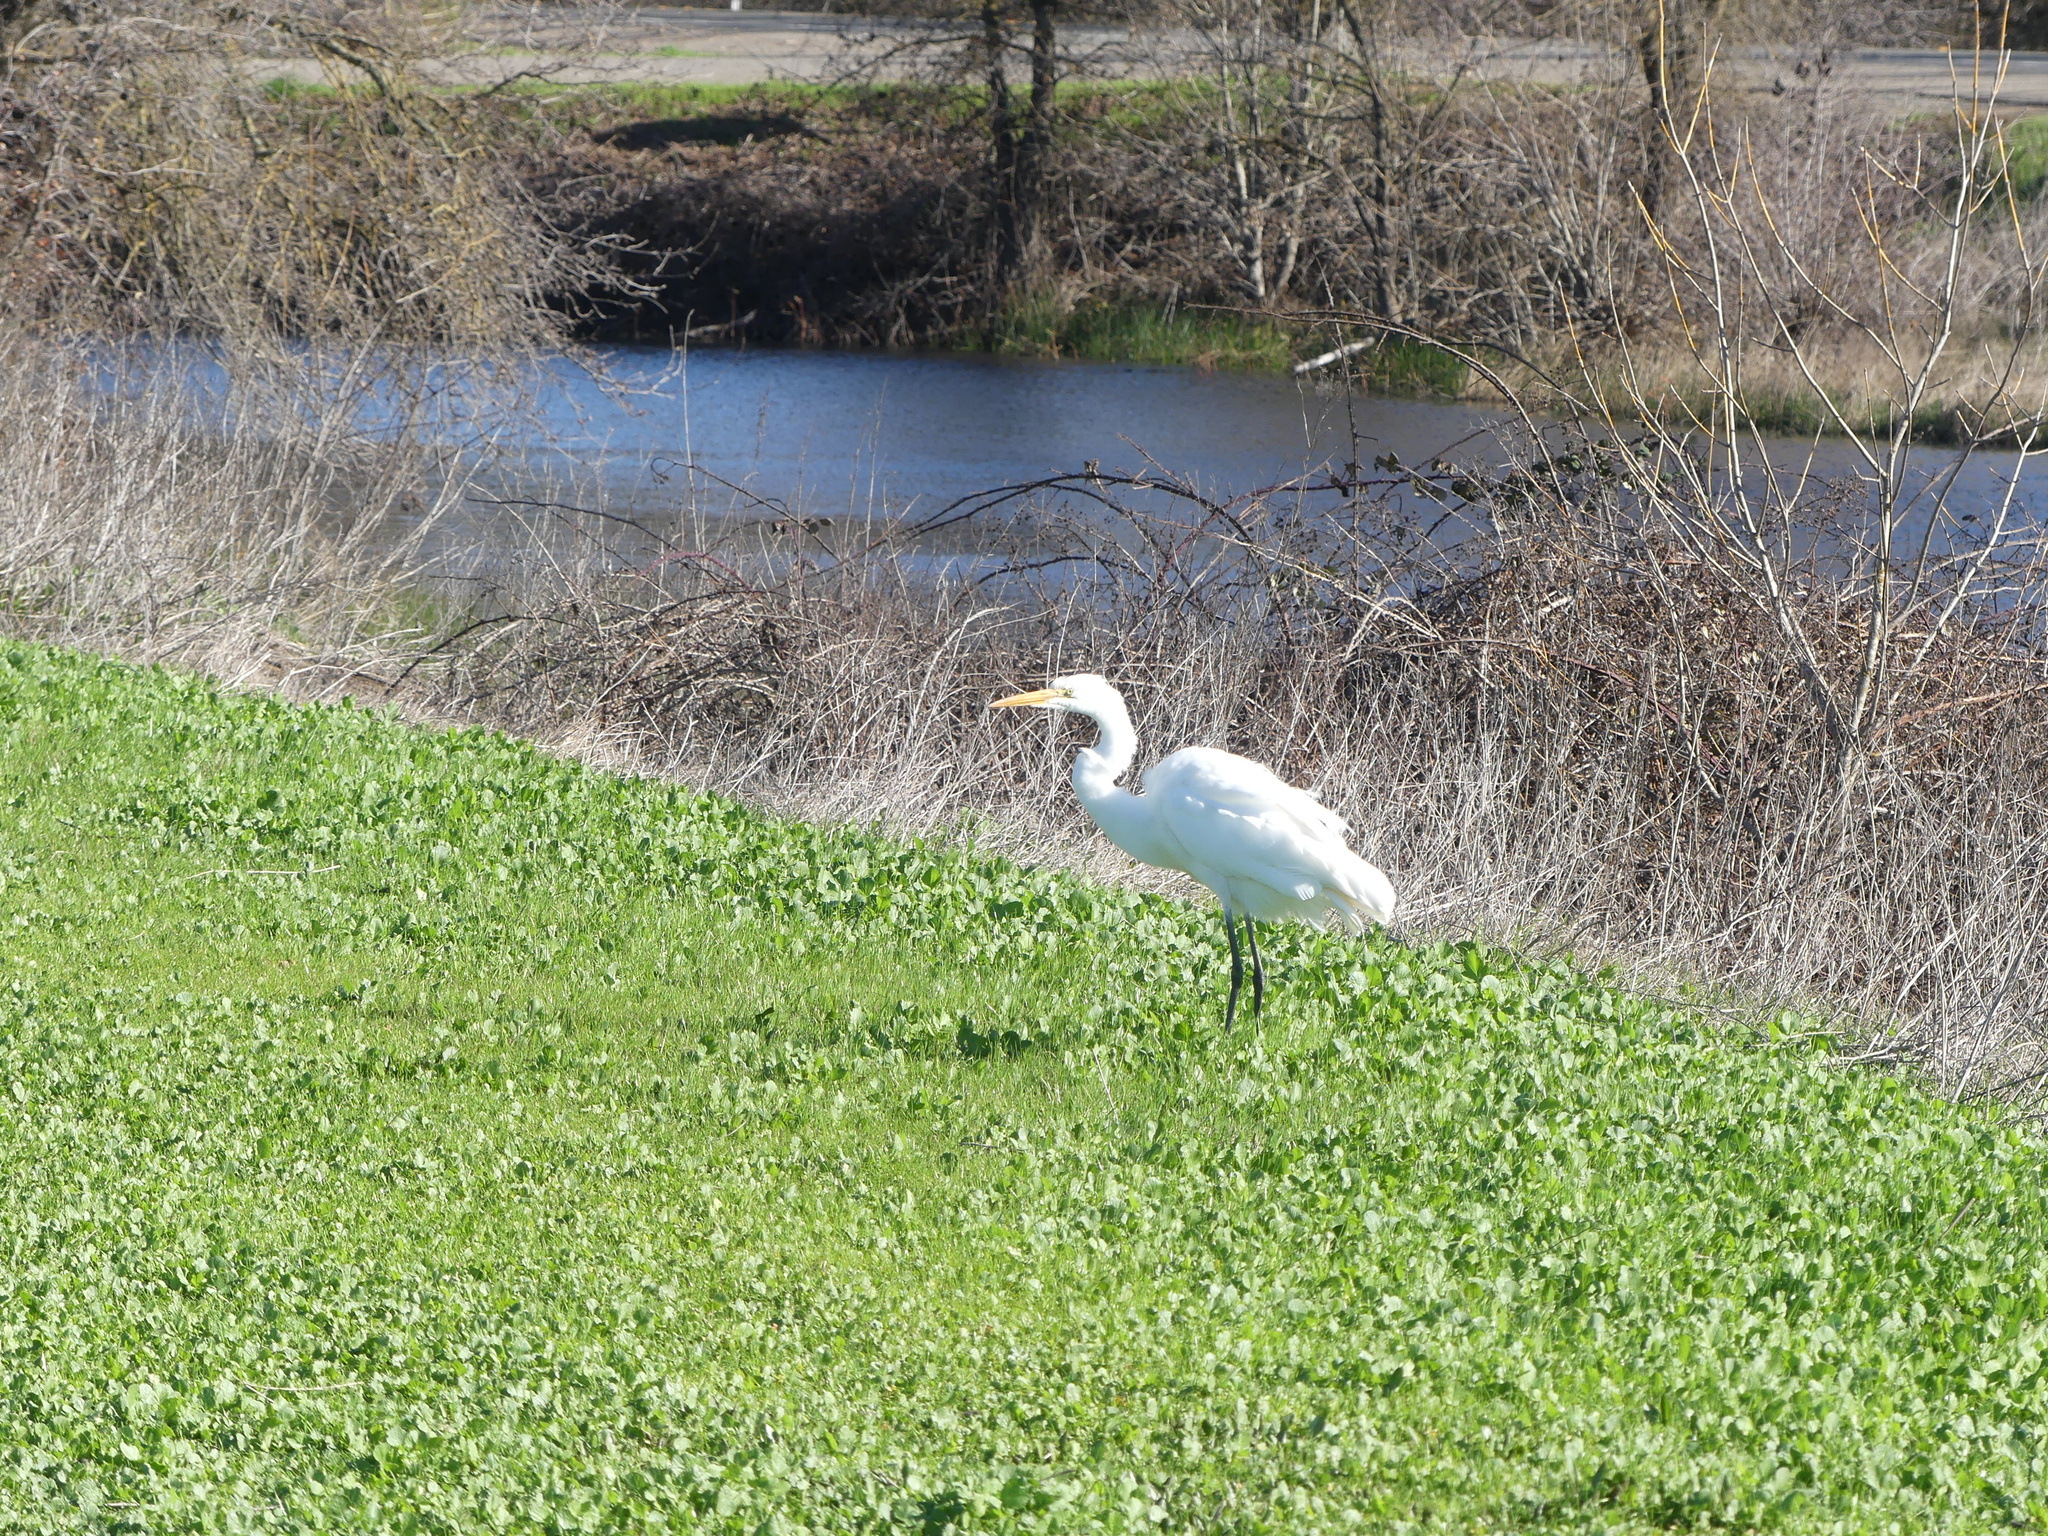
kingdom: Animalia
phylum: Chordata
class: Aves
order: Pelecaniformes
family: Ardeidae
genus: Ardea
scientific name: Ardea alba
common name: Great egret
